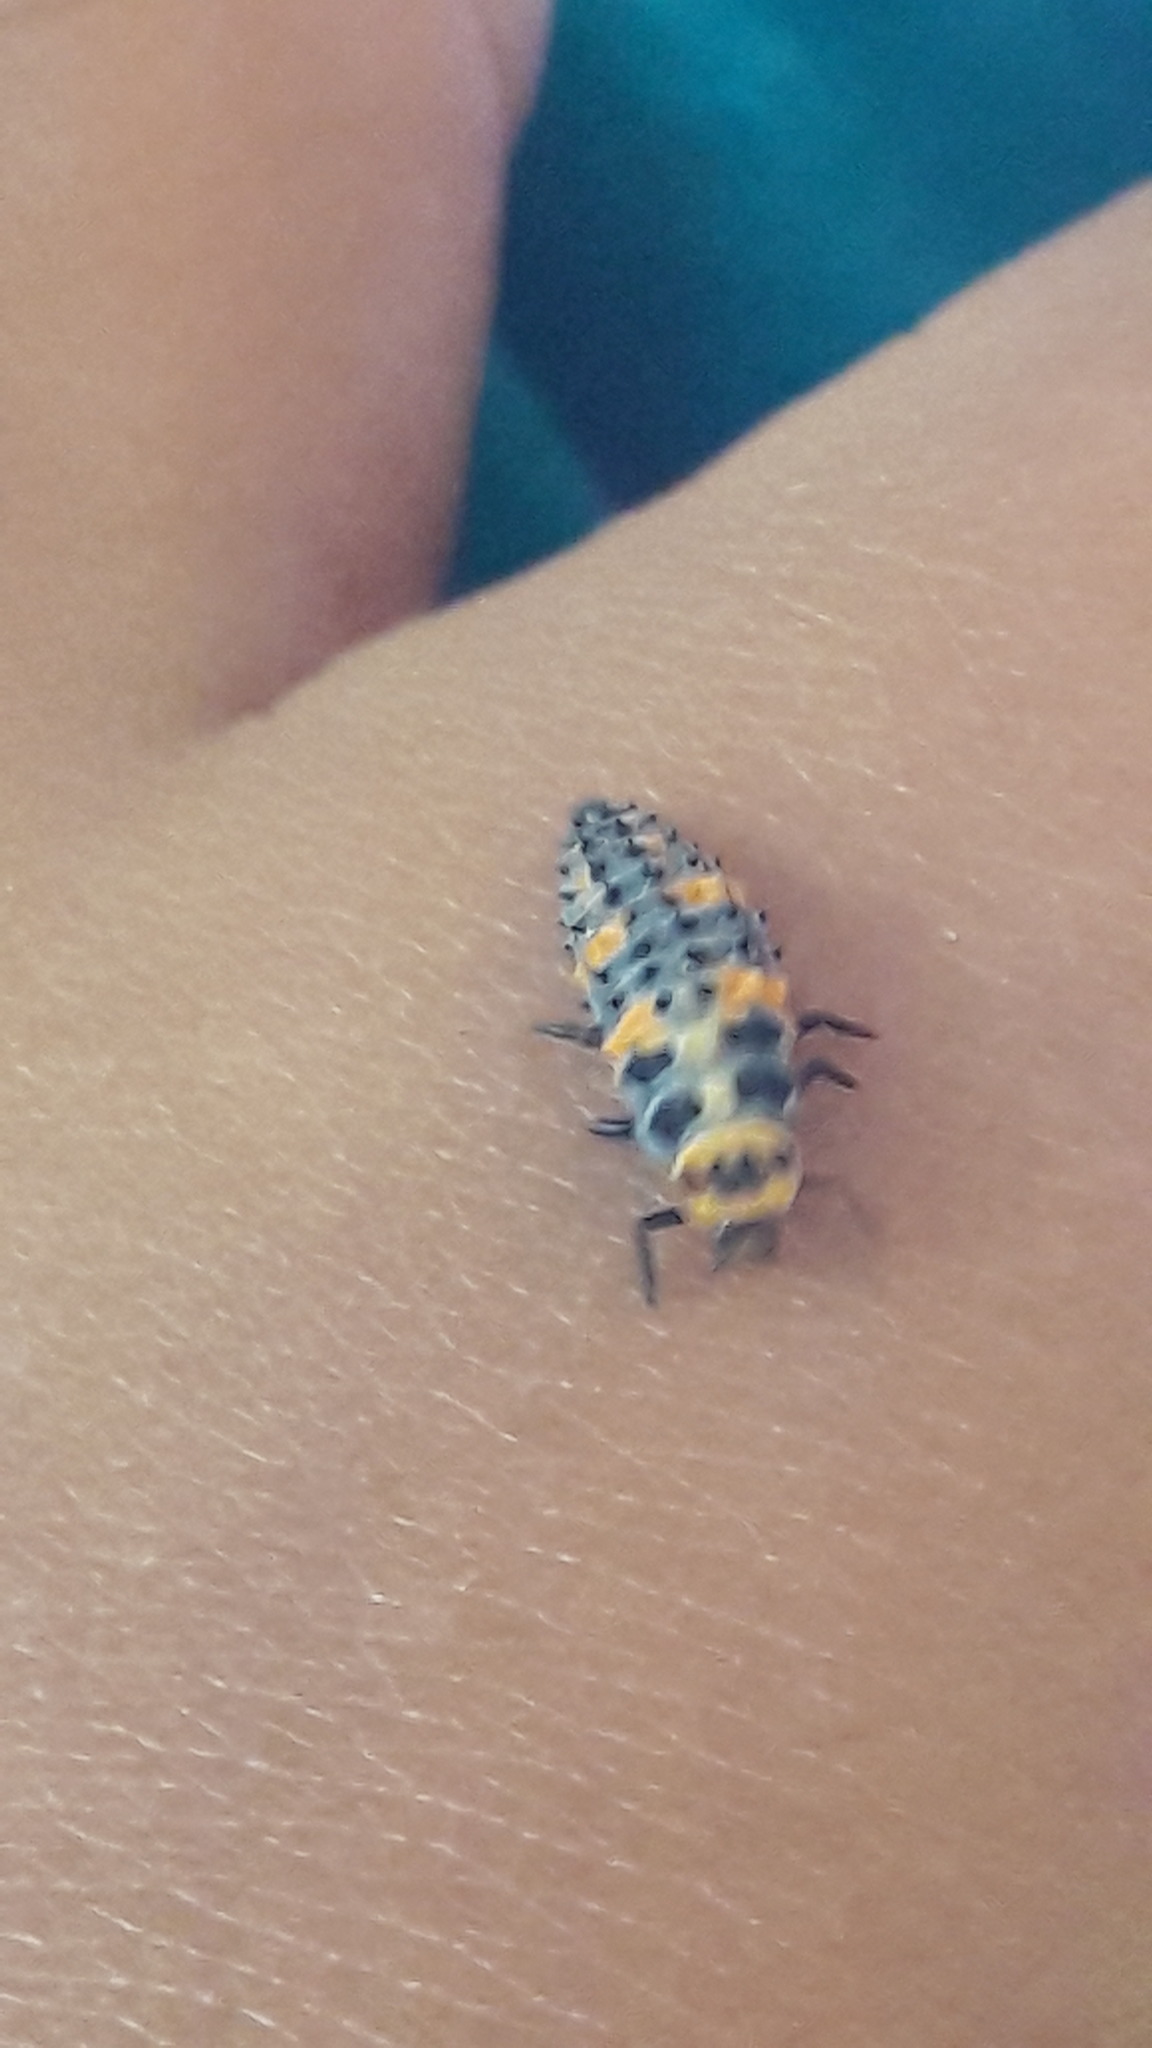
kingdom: Animalia
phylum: Arthropoda
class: Insecta
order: Coleoptera
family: Coccinellidae
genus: Cycloneda
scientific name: Cycloneda sanguinea
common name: Ladybird beetle
